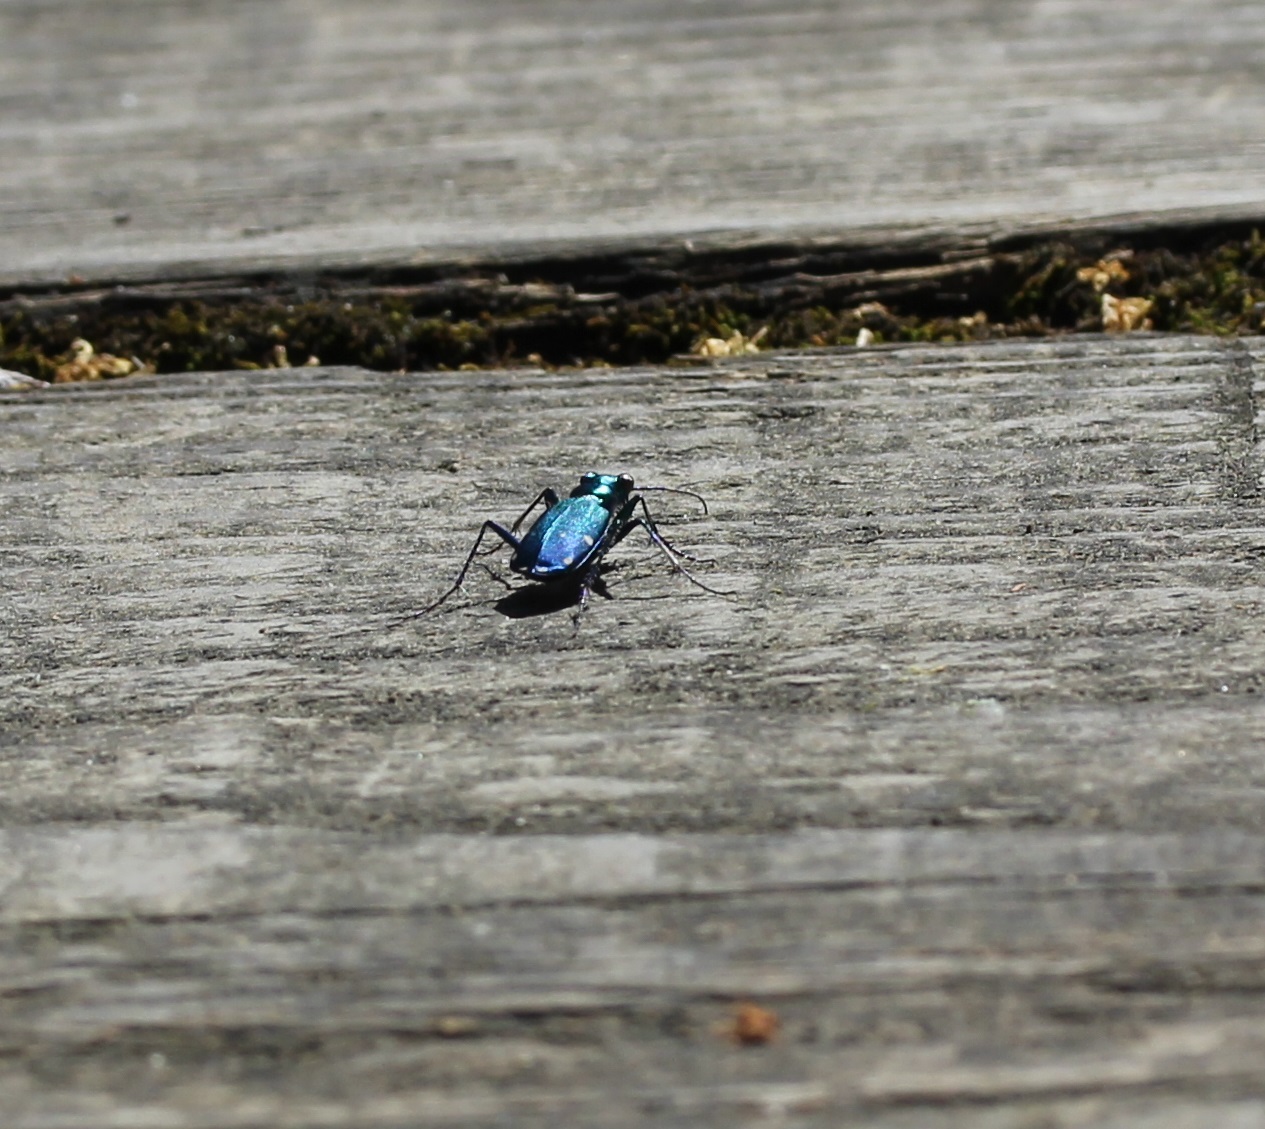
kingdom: Animalia
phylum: Arthropoda
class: Insecta
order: Coleoptera
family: Carabidae
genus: Cicindela
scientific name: Cicindela sexguttata
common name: Six-spotted tiger beetle
